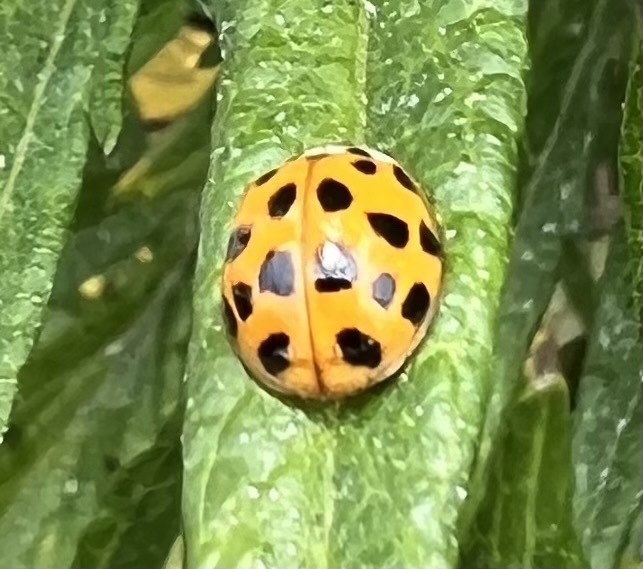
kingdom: Animalia
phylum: Arthropoda
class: Insecta
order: Coleoptera
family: Coccinellidae
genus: Harmonia
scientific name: Harmonia axyridis
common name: Harlequin ladybird
